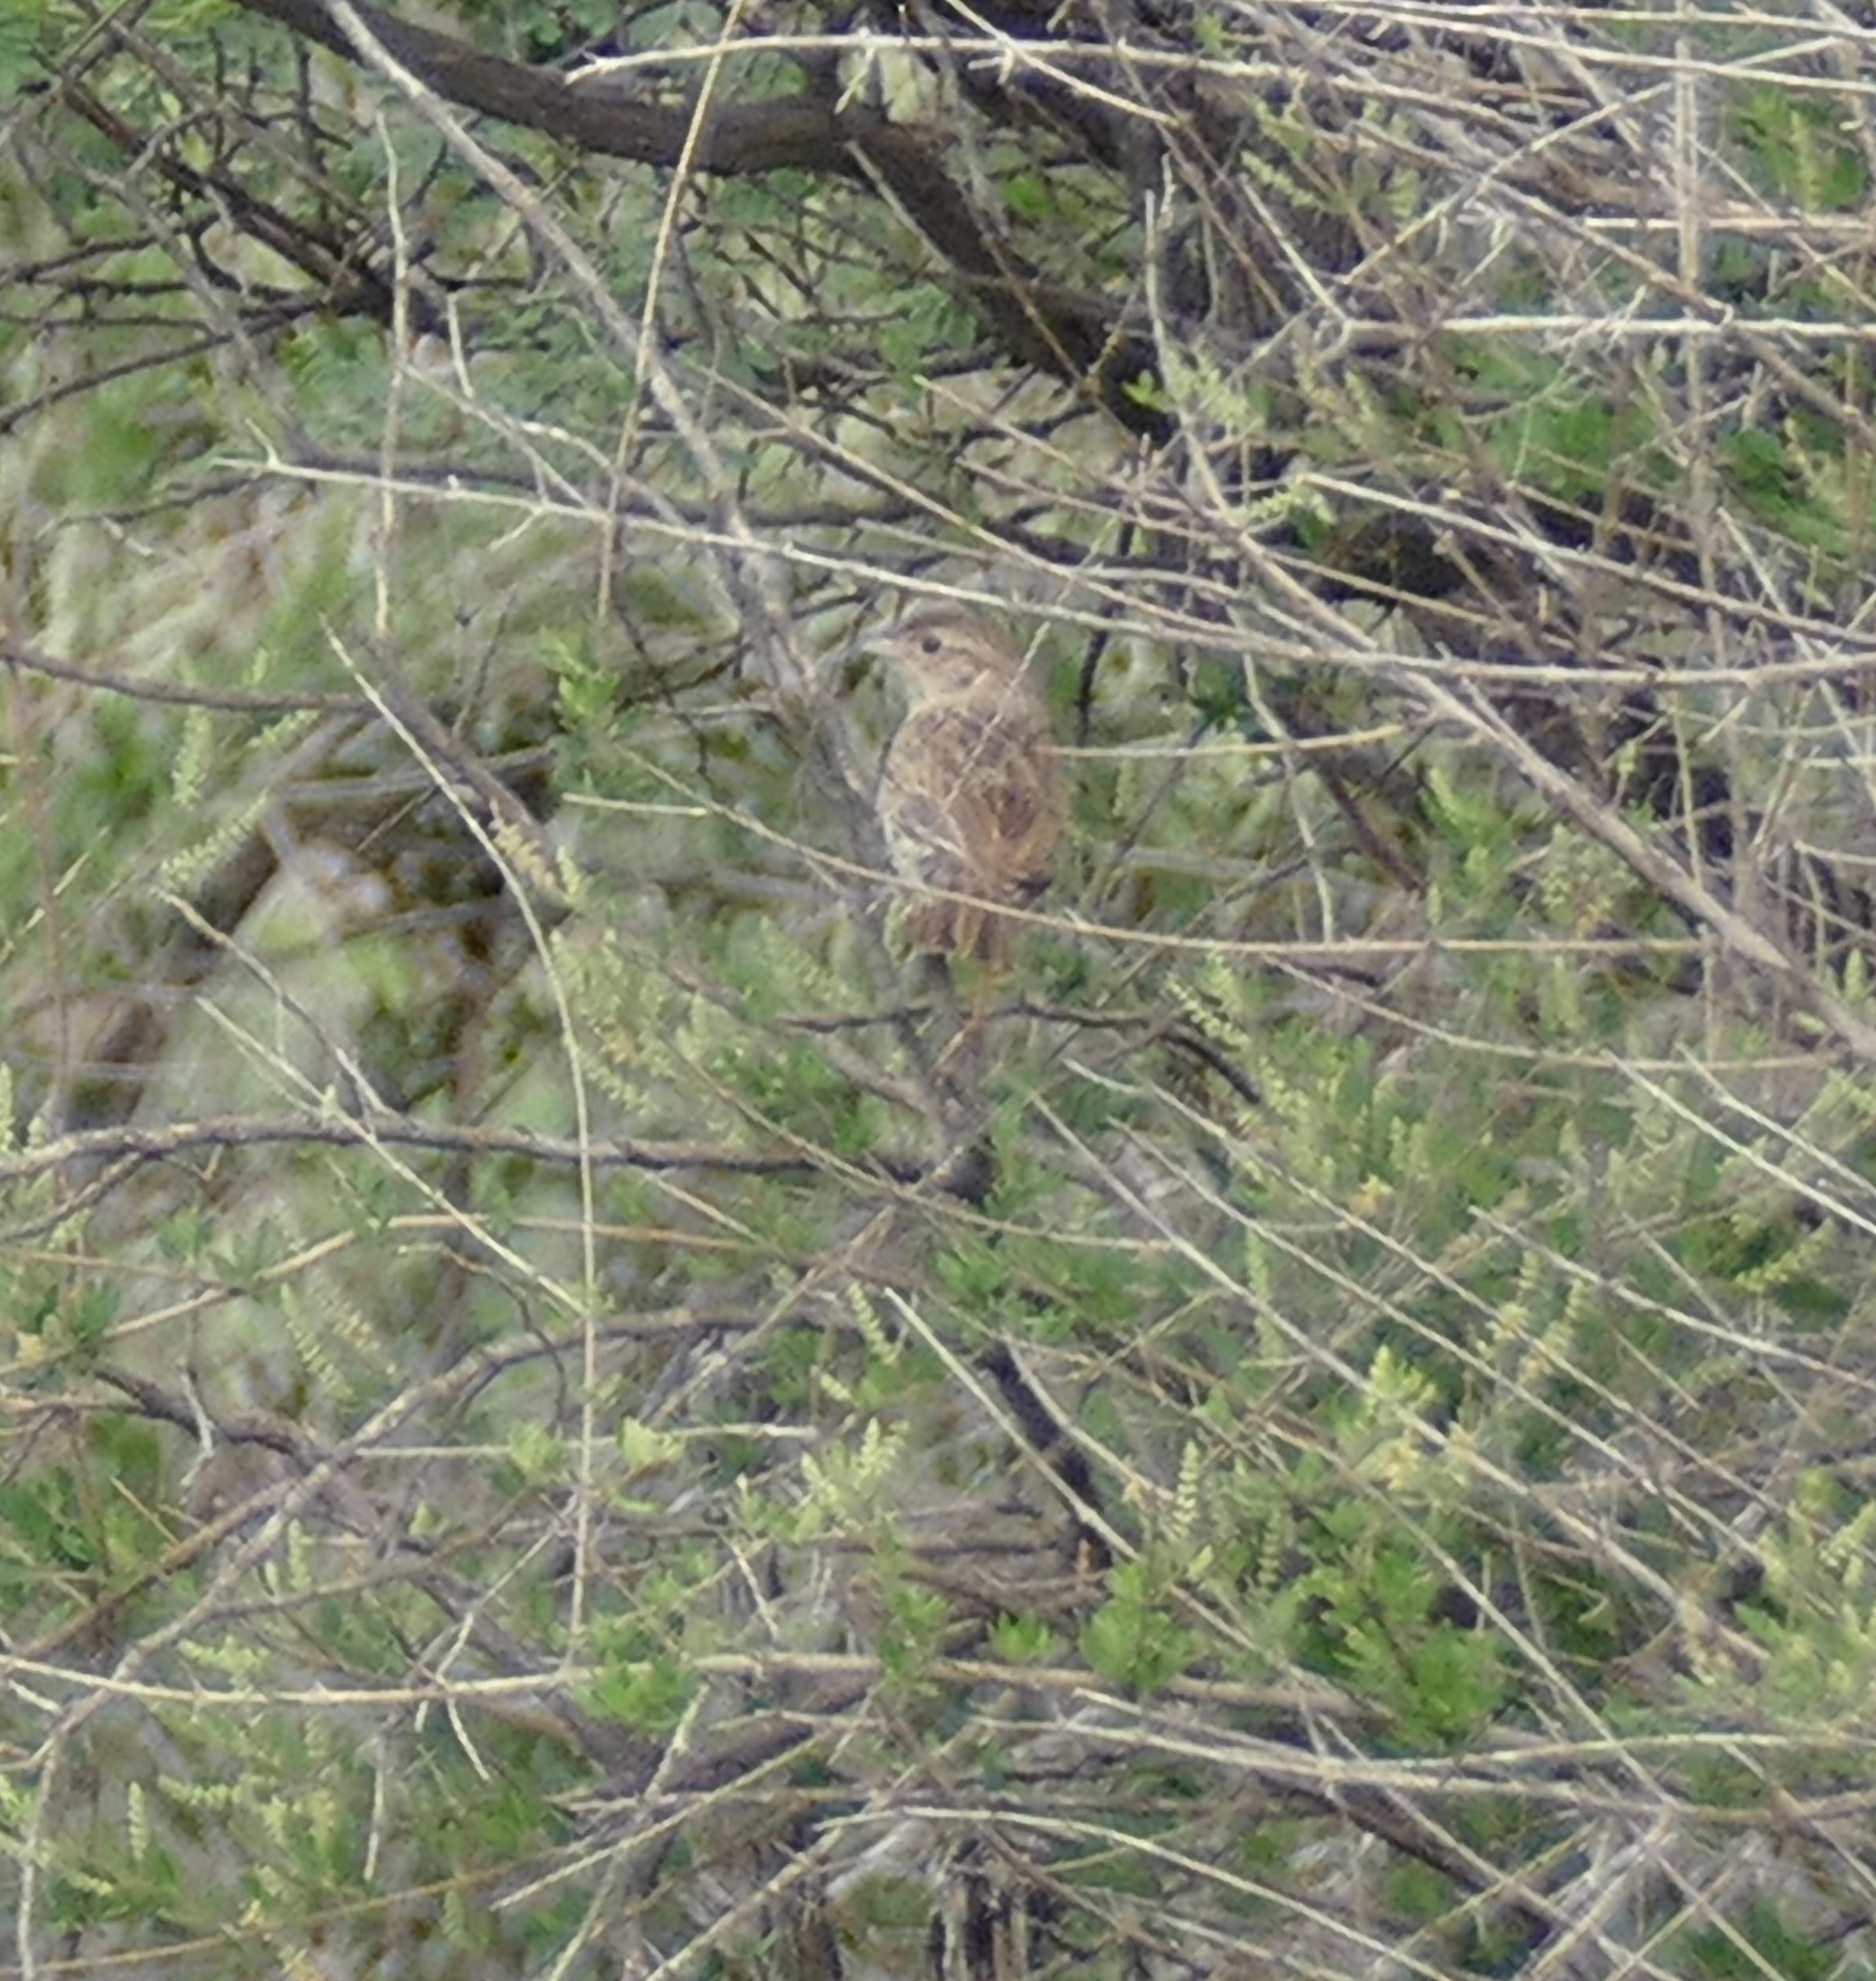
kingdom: Animalia
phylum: Chordata
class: Aves
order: Passeriformes
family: Passerellidae
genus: Peucaea
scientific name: Peucaea cassinii
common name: Cassin's sparrow
